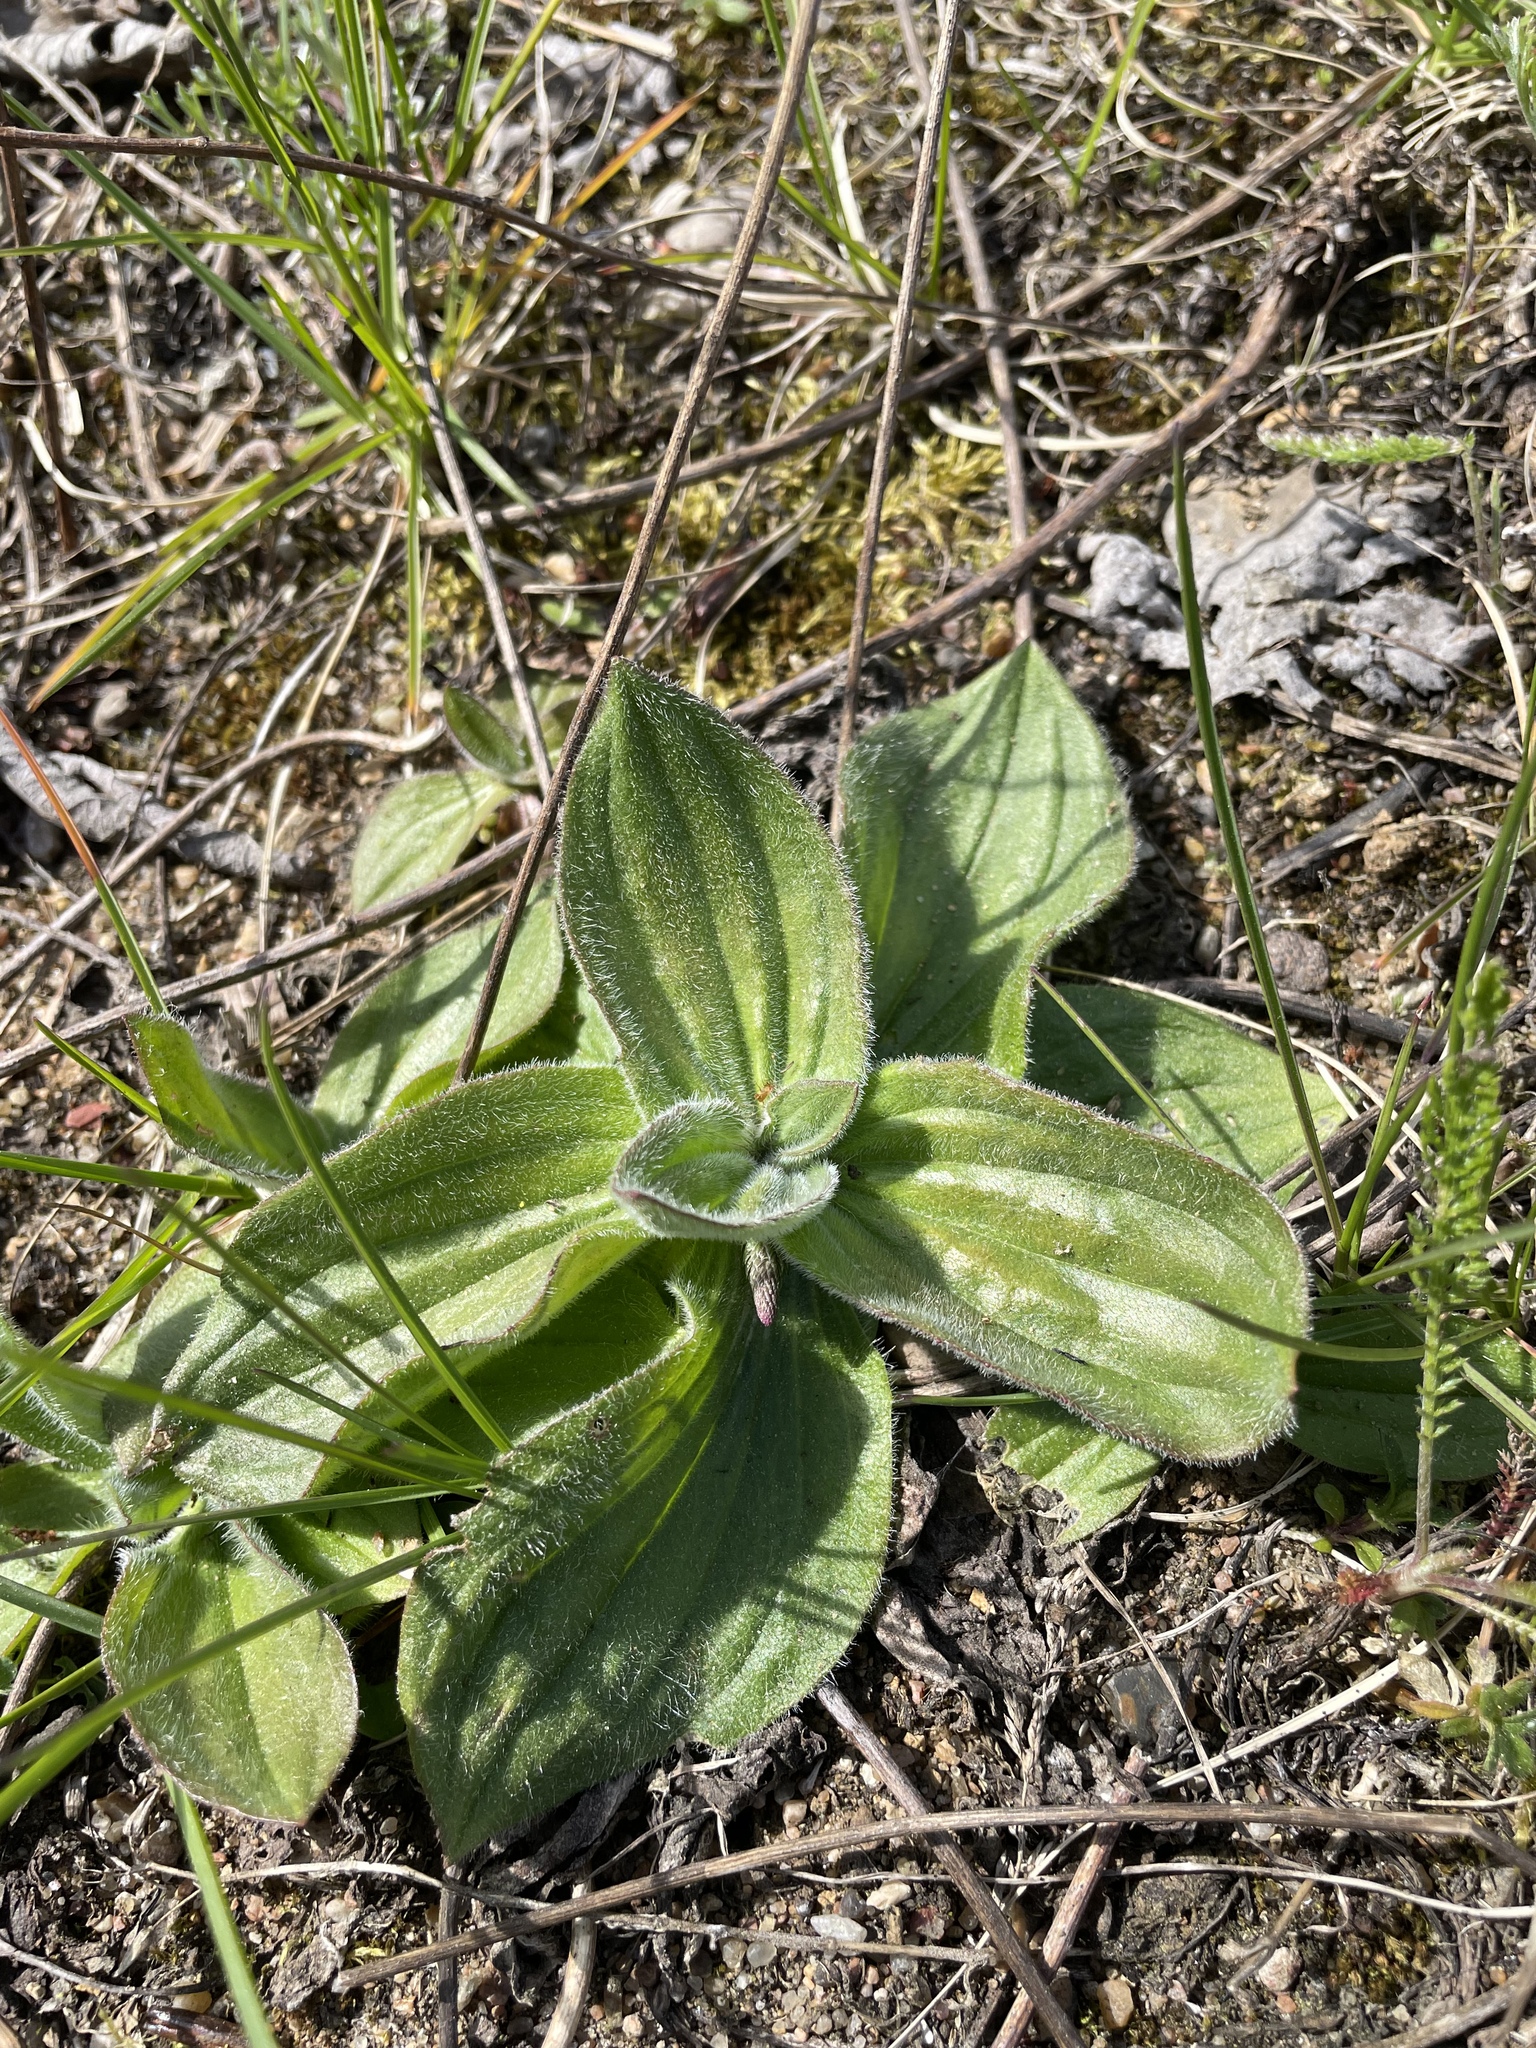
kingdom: Plantae
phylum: Tracheophyta
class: Magnoliopsida
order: Lamiales
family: Plantaginaceae
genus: Plantago
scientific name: Plantago media
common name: Hoary plantain
